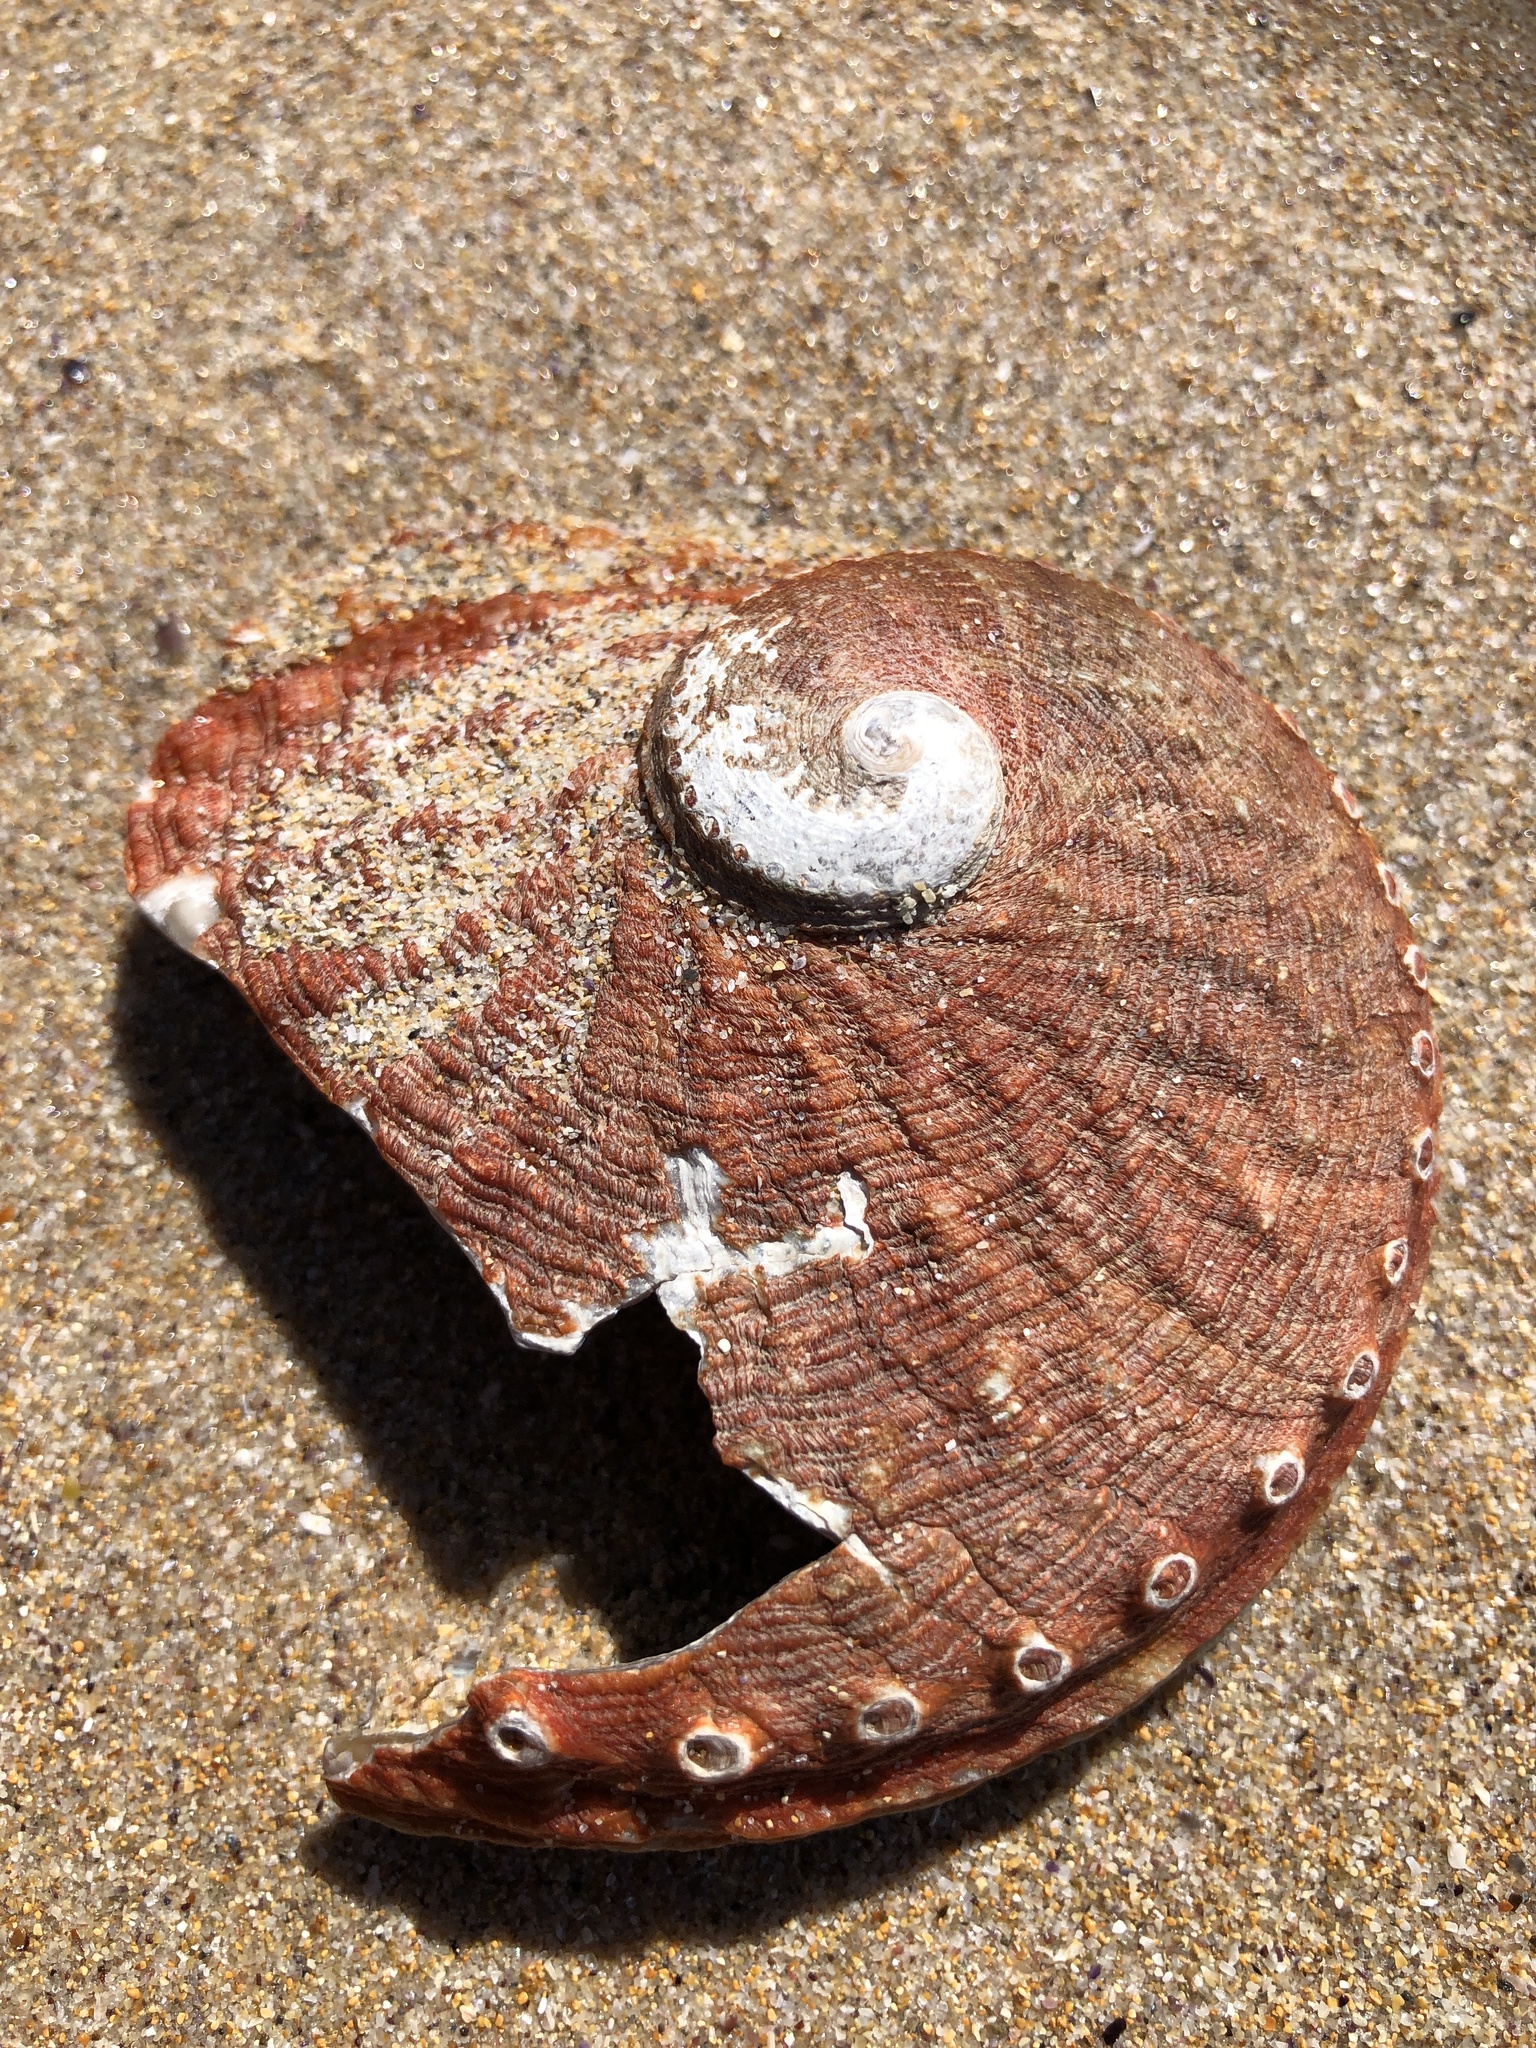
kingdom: Animalia
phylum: Mollusca
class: Gastropoda
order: Lepetellida
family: Haliotidae
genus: Haliotis
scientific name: Haliotis rubra
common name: Blacklip abalone
